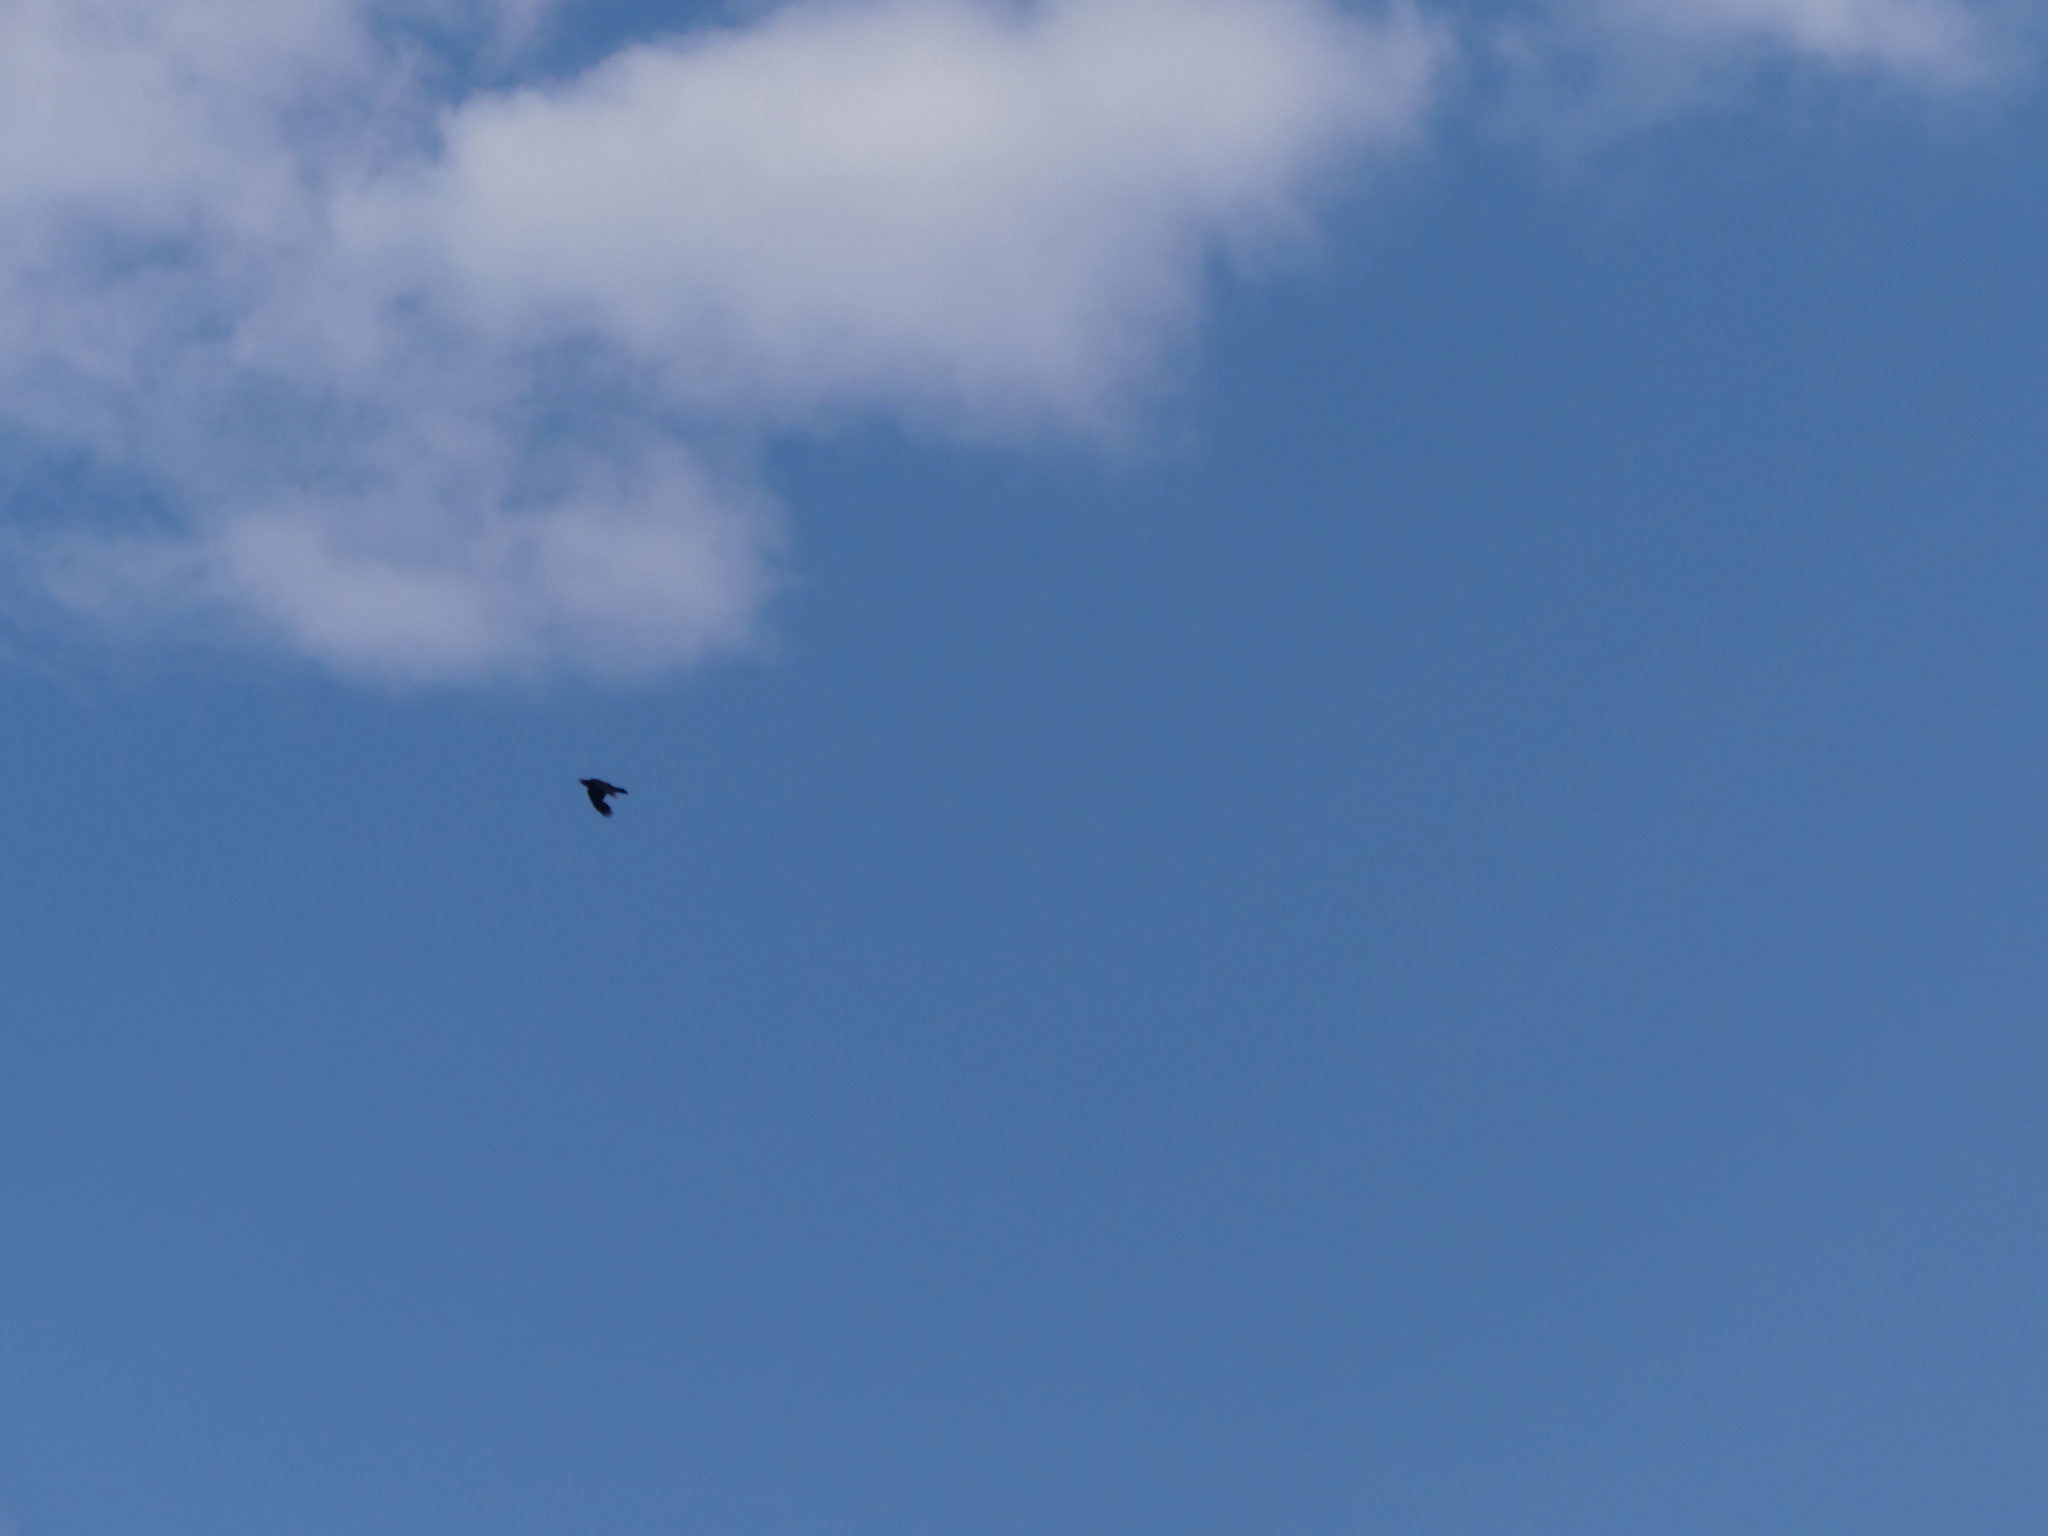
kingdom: Animalia
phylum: Chordata
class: Aves
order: Passeriformes
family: Corvidae
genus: Corvus
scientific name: Corvus corax
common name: Common raven
